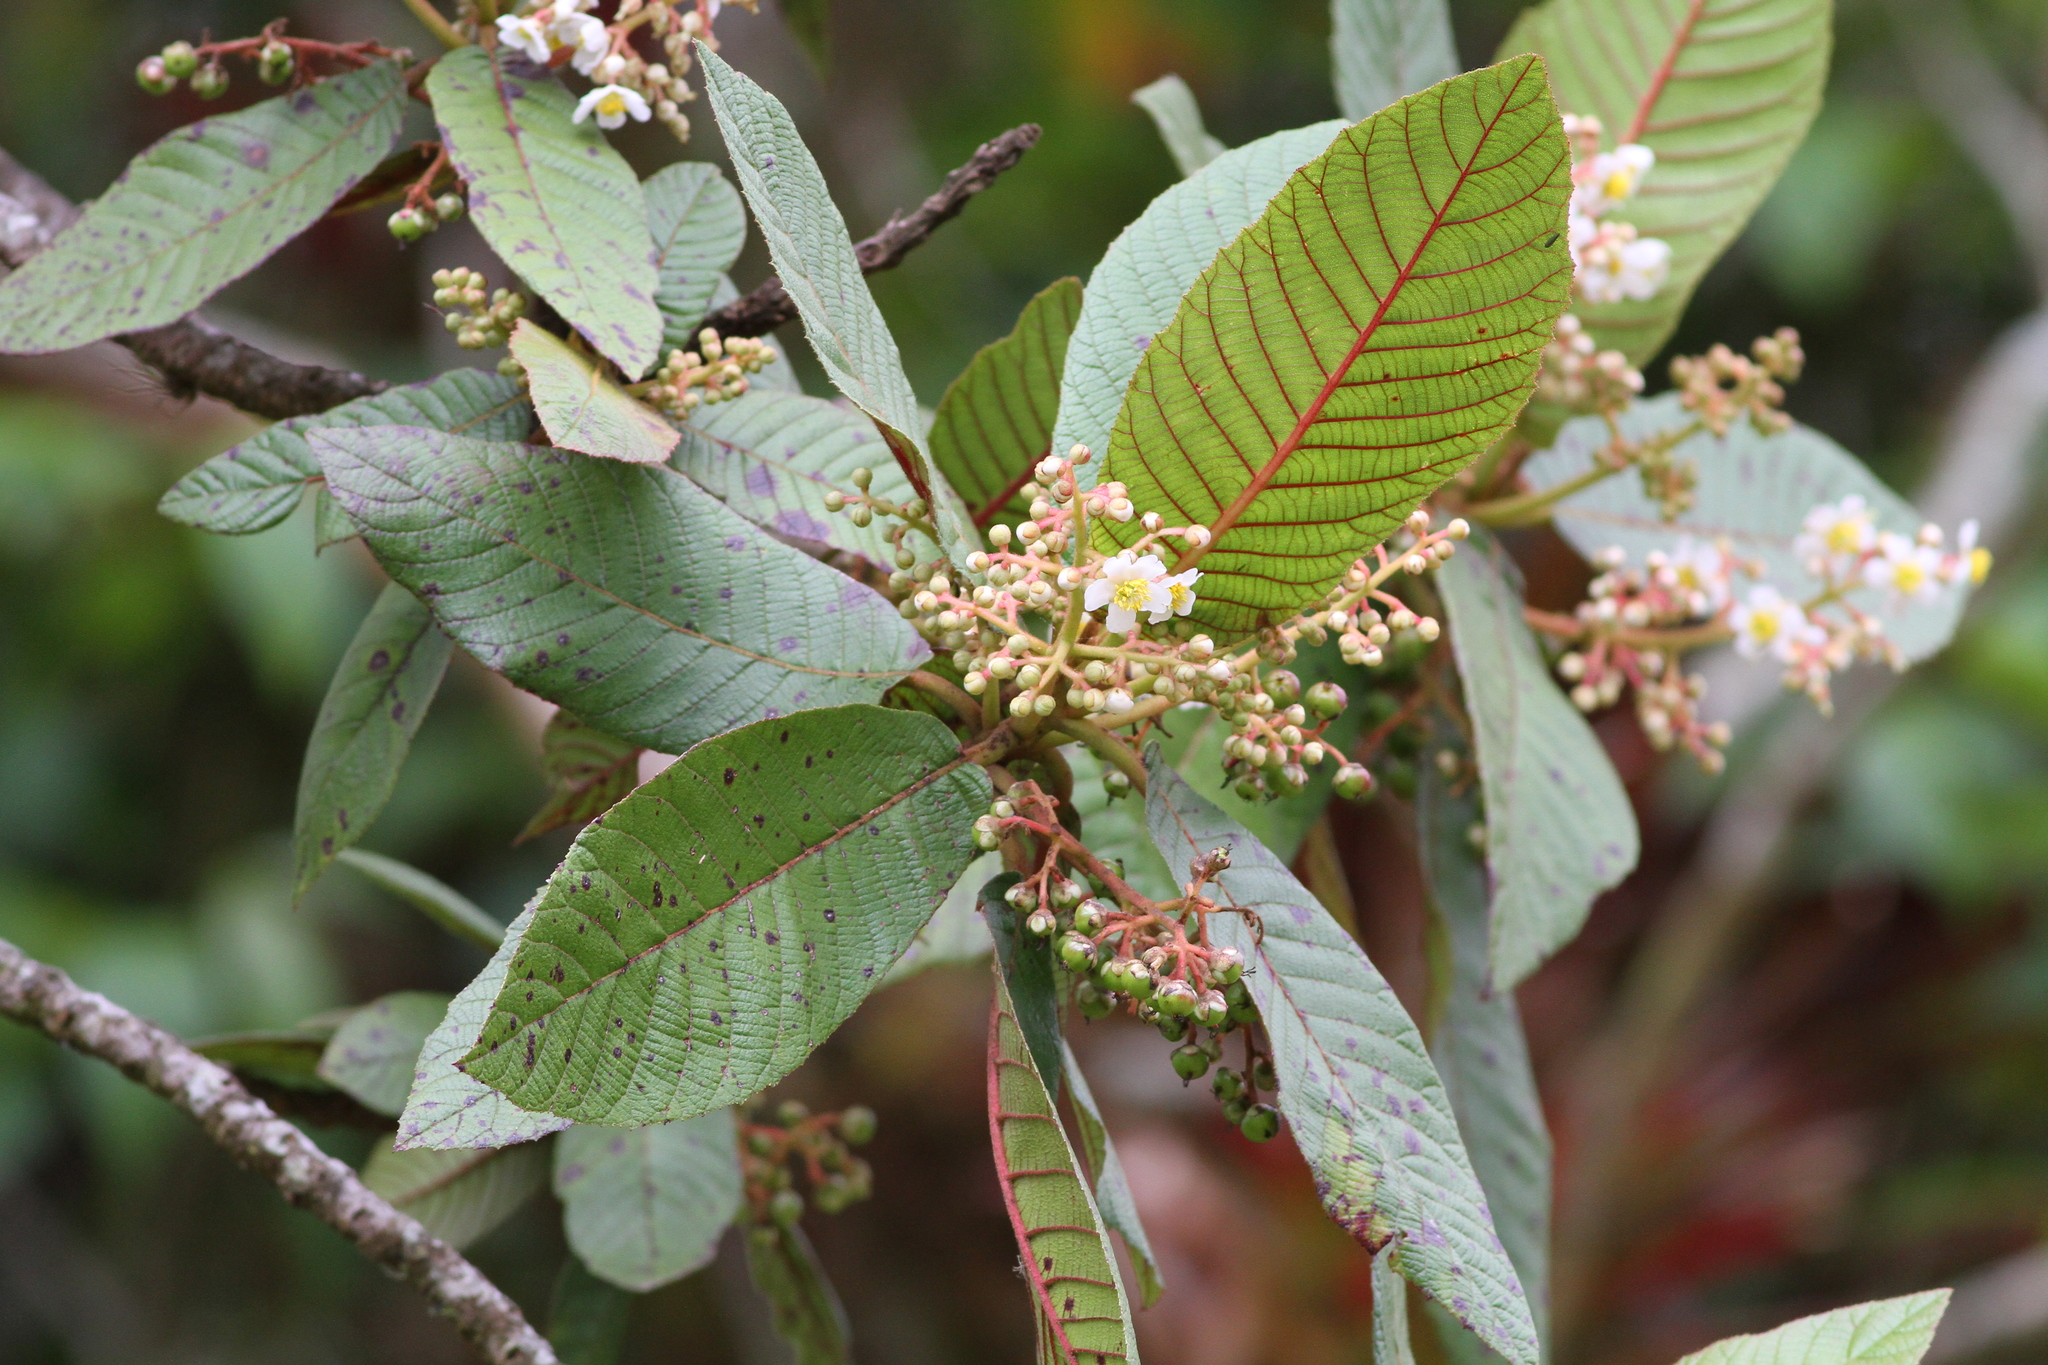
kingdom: Plantae
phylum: Tracheophyta
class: Magnoliopsida
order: Ericales
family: Actinidiaceae
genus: Saurauia
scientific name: Saurauia madrensis
